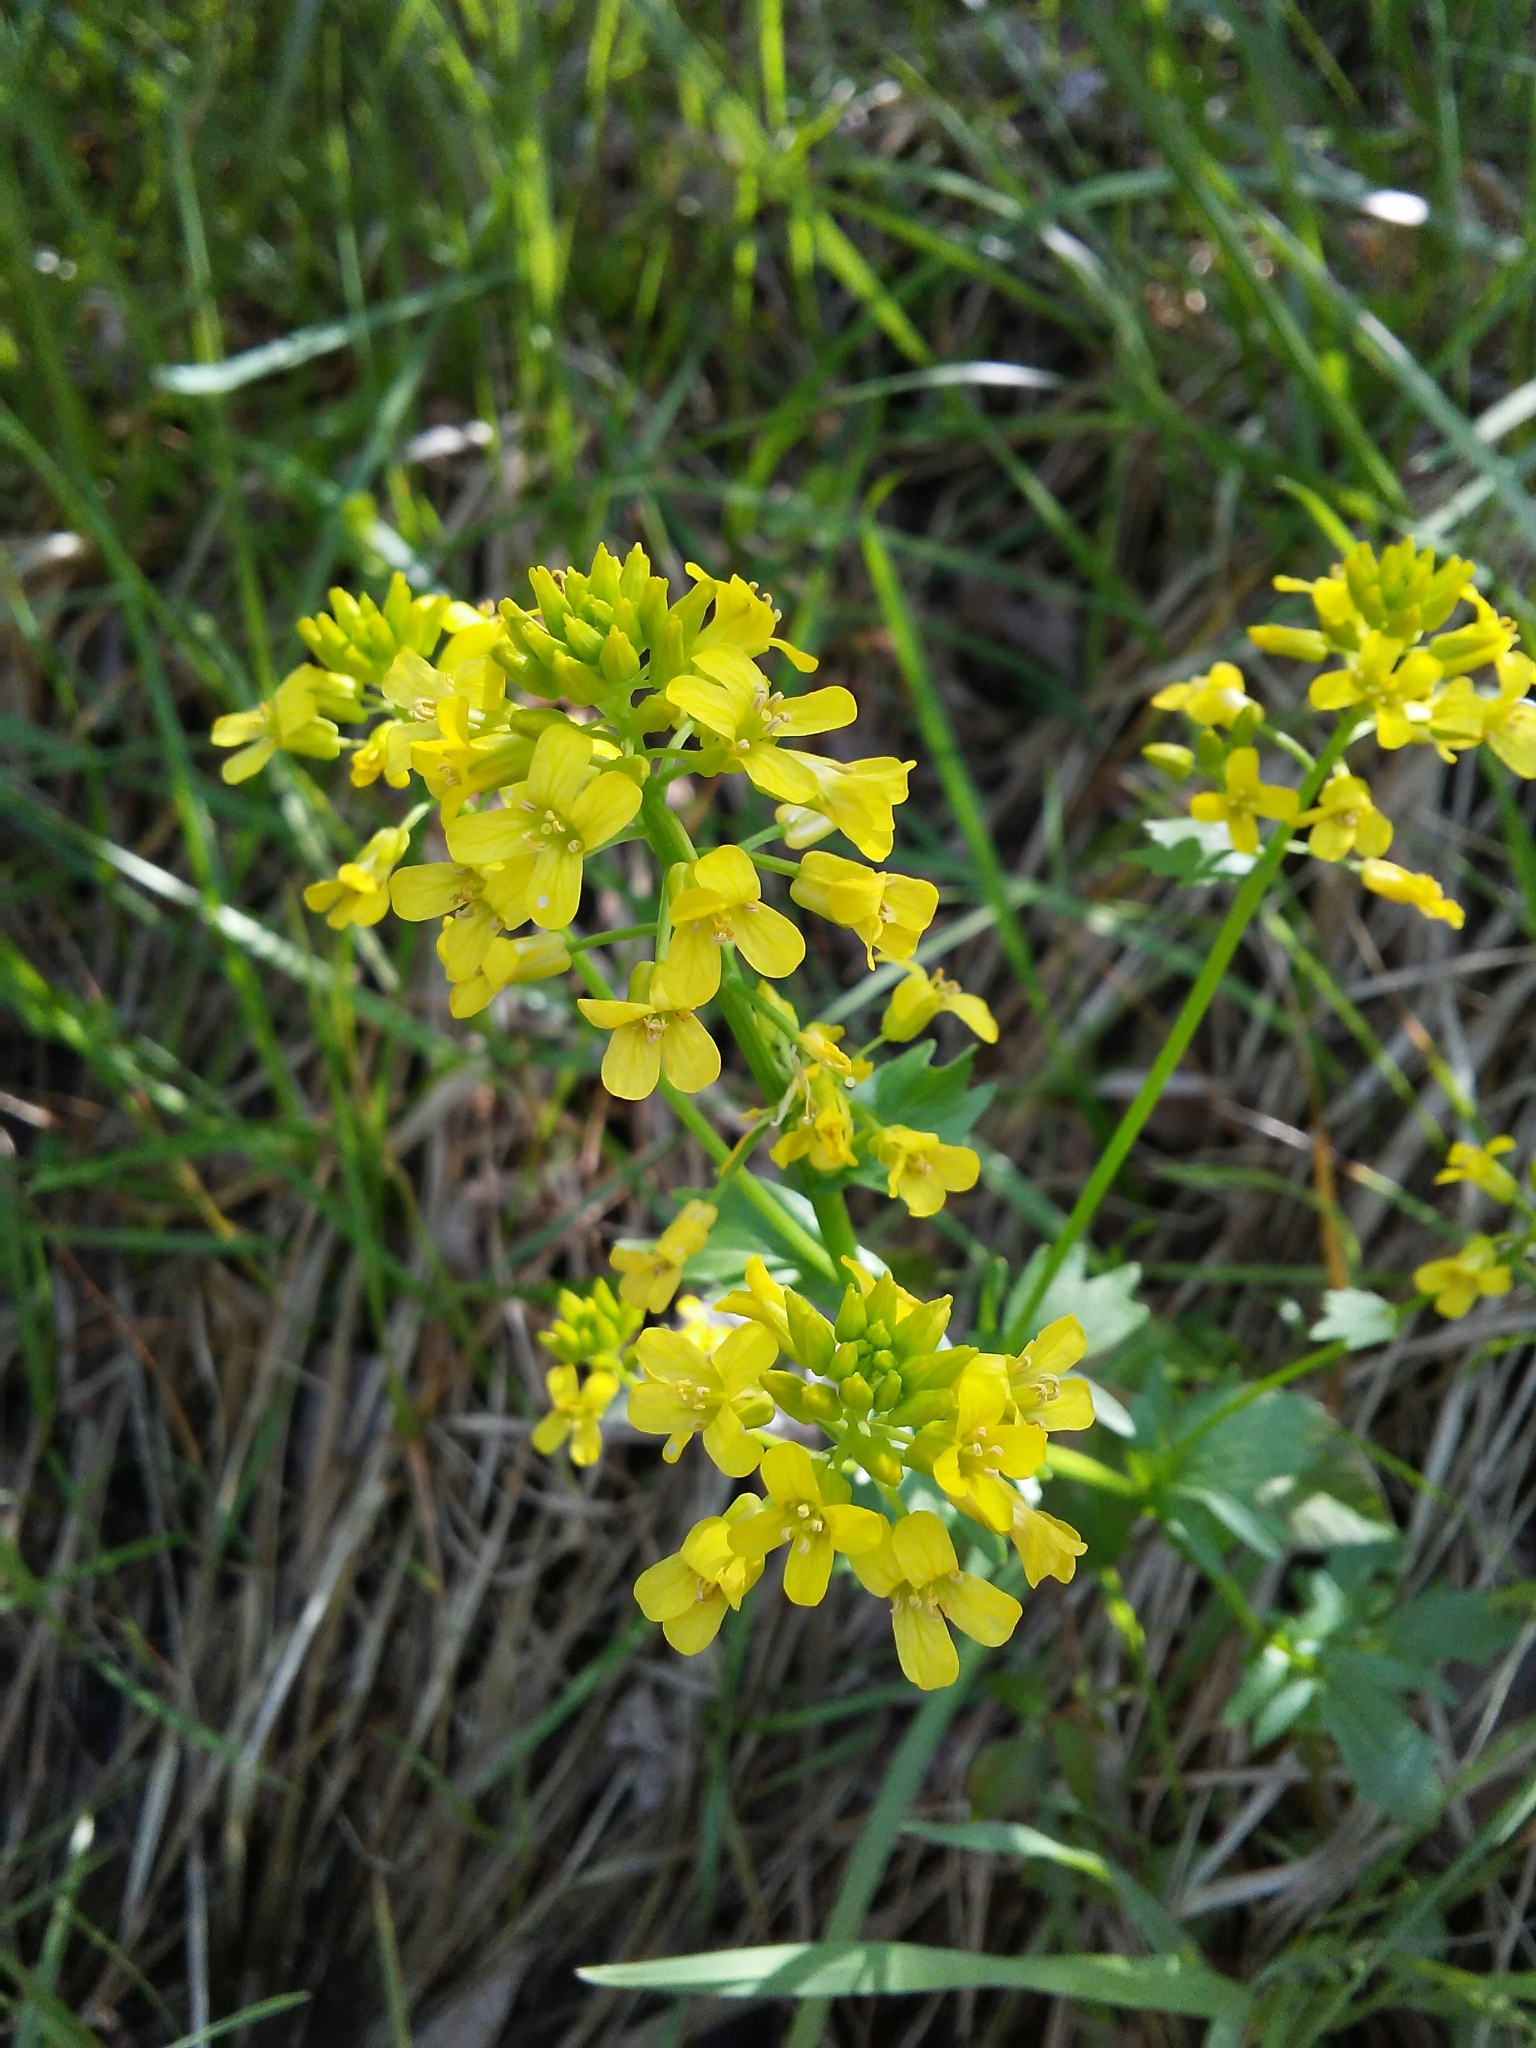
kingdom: Plantae
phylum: Tracheophyta
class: Magnoliopsida
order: Brassicales
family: Brassicaceae
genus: Barbarea
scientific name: Barbarea vulgaris
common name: Cressy-greens
